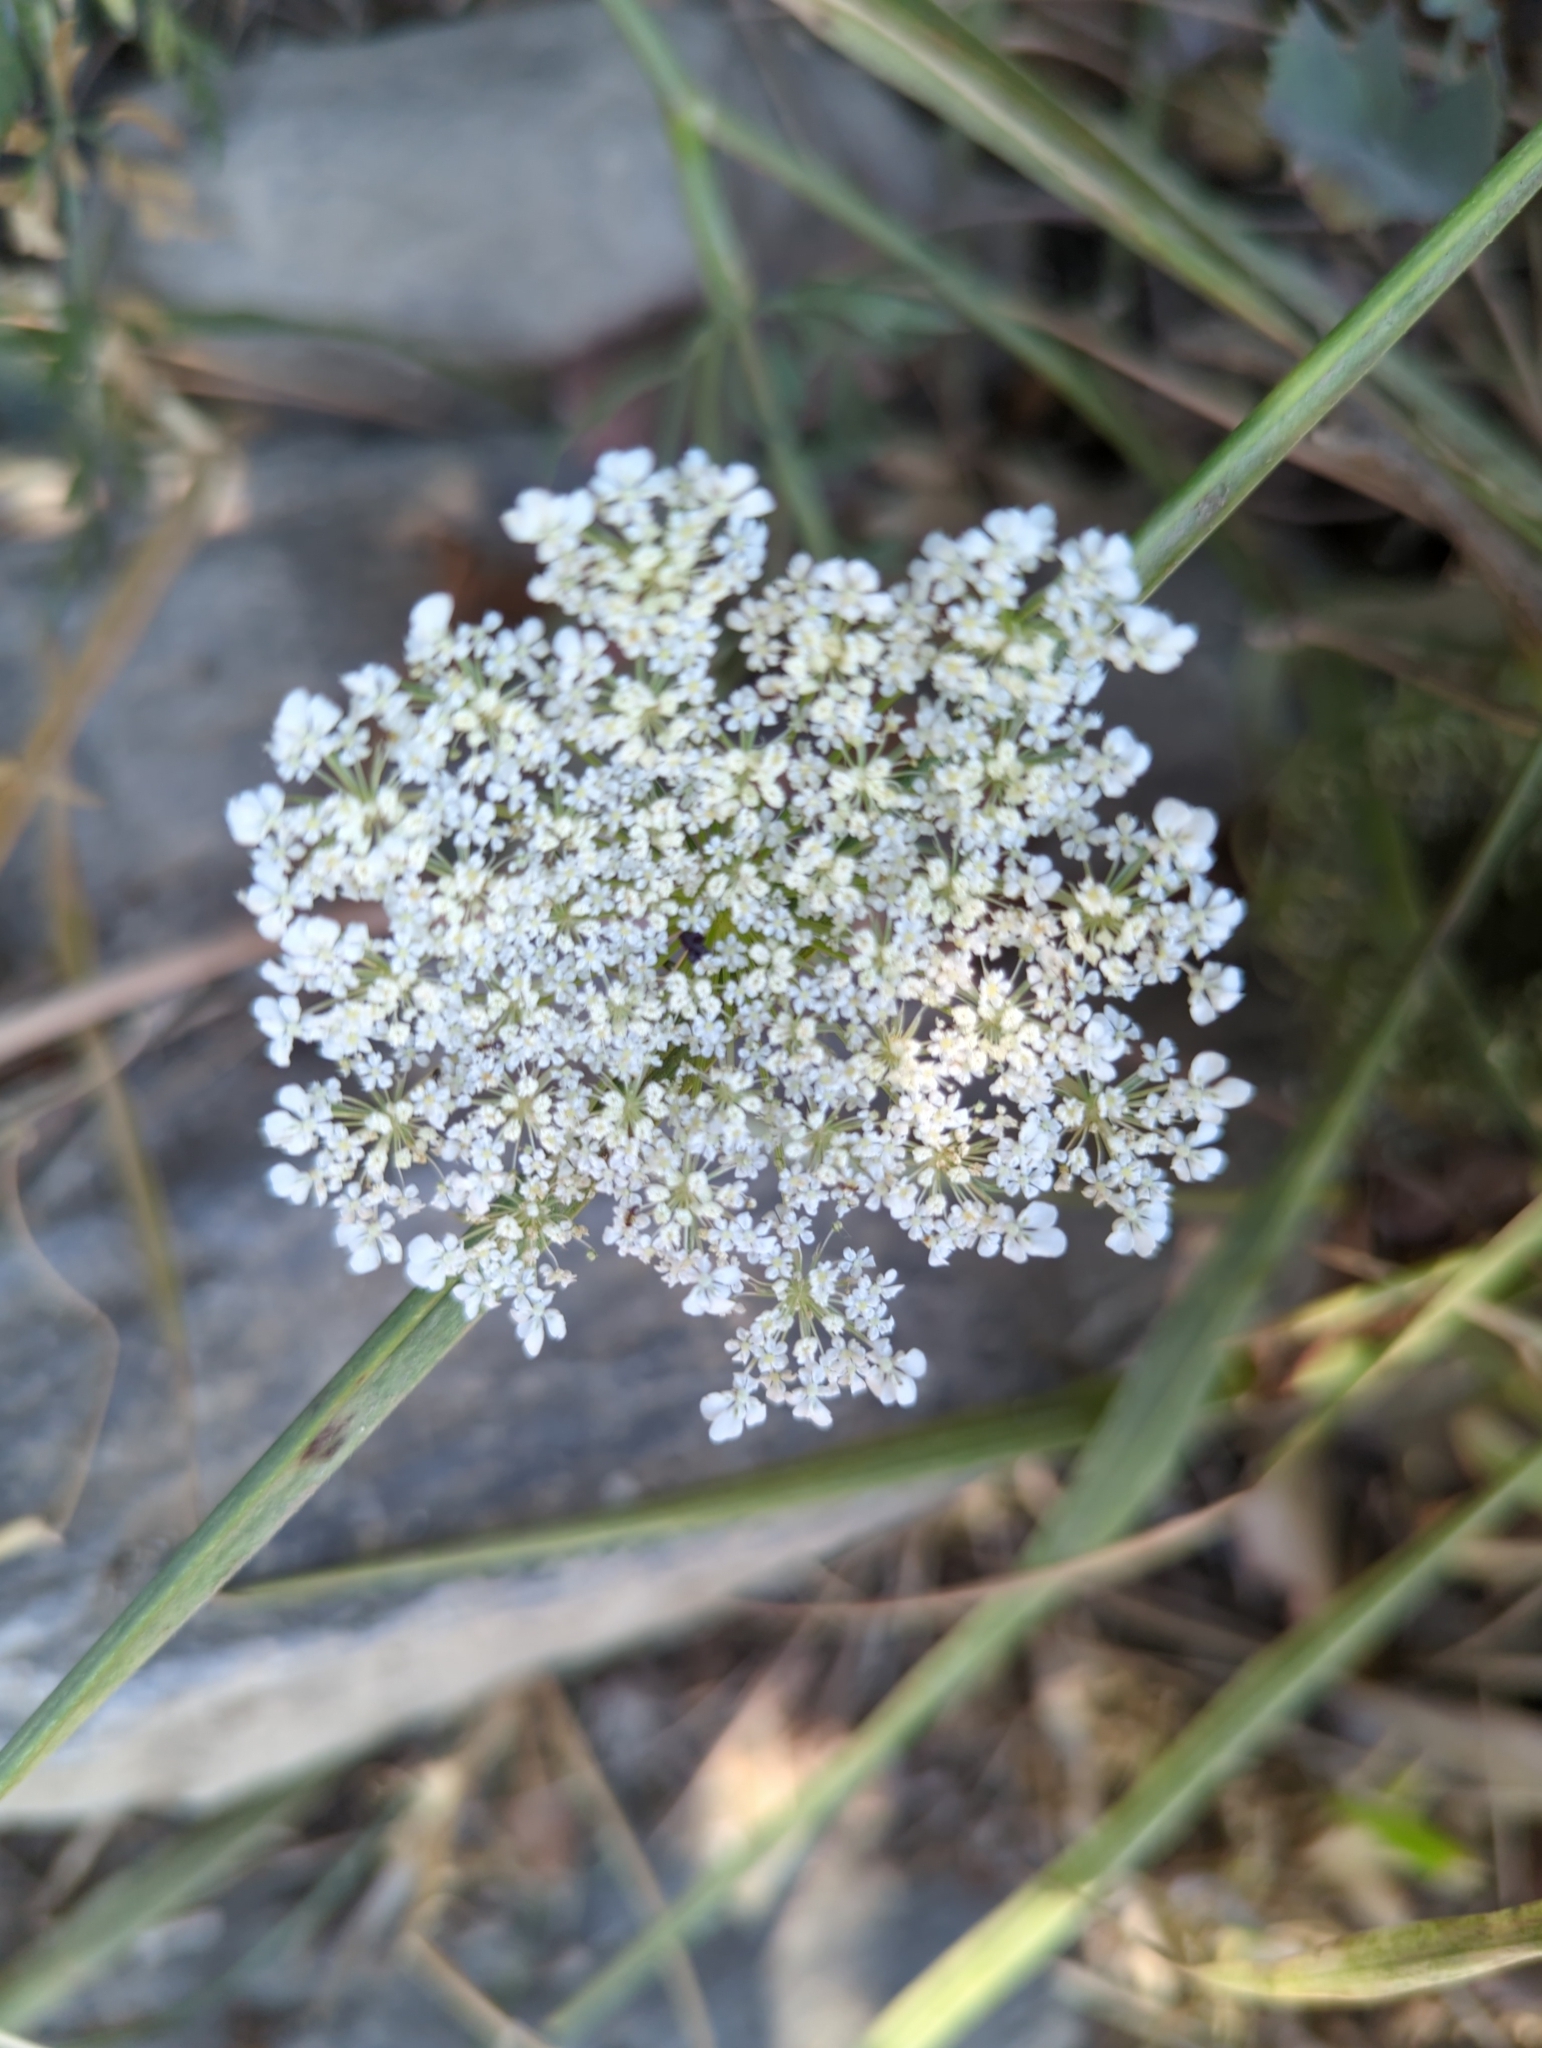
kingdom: Plantae
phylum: Tracheophyta
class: Magnoliopsida
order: Apiales
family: Apiaceae
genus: Daucus
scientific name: Daucus carota
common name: Wild carrot
